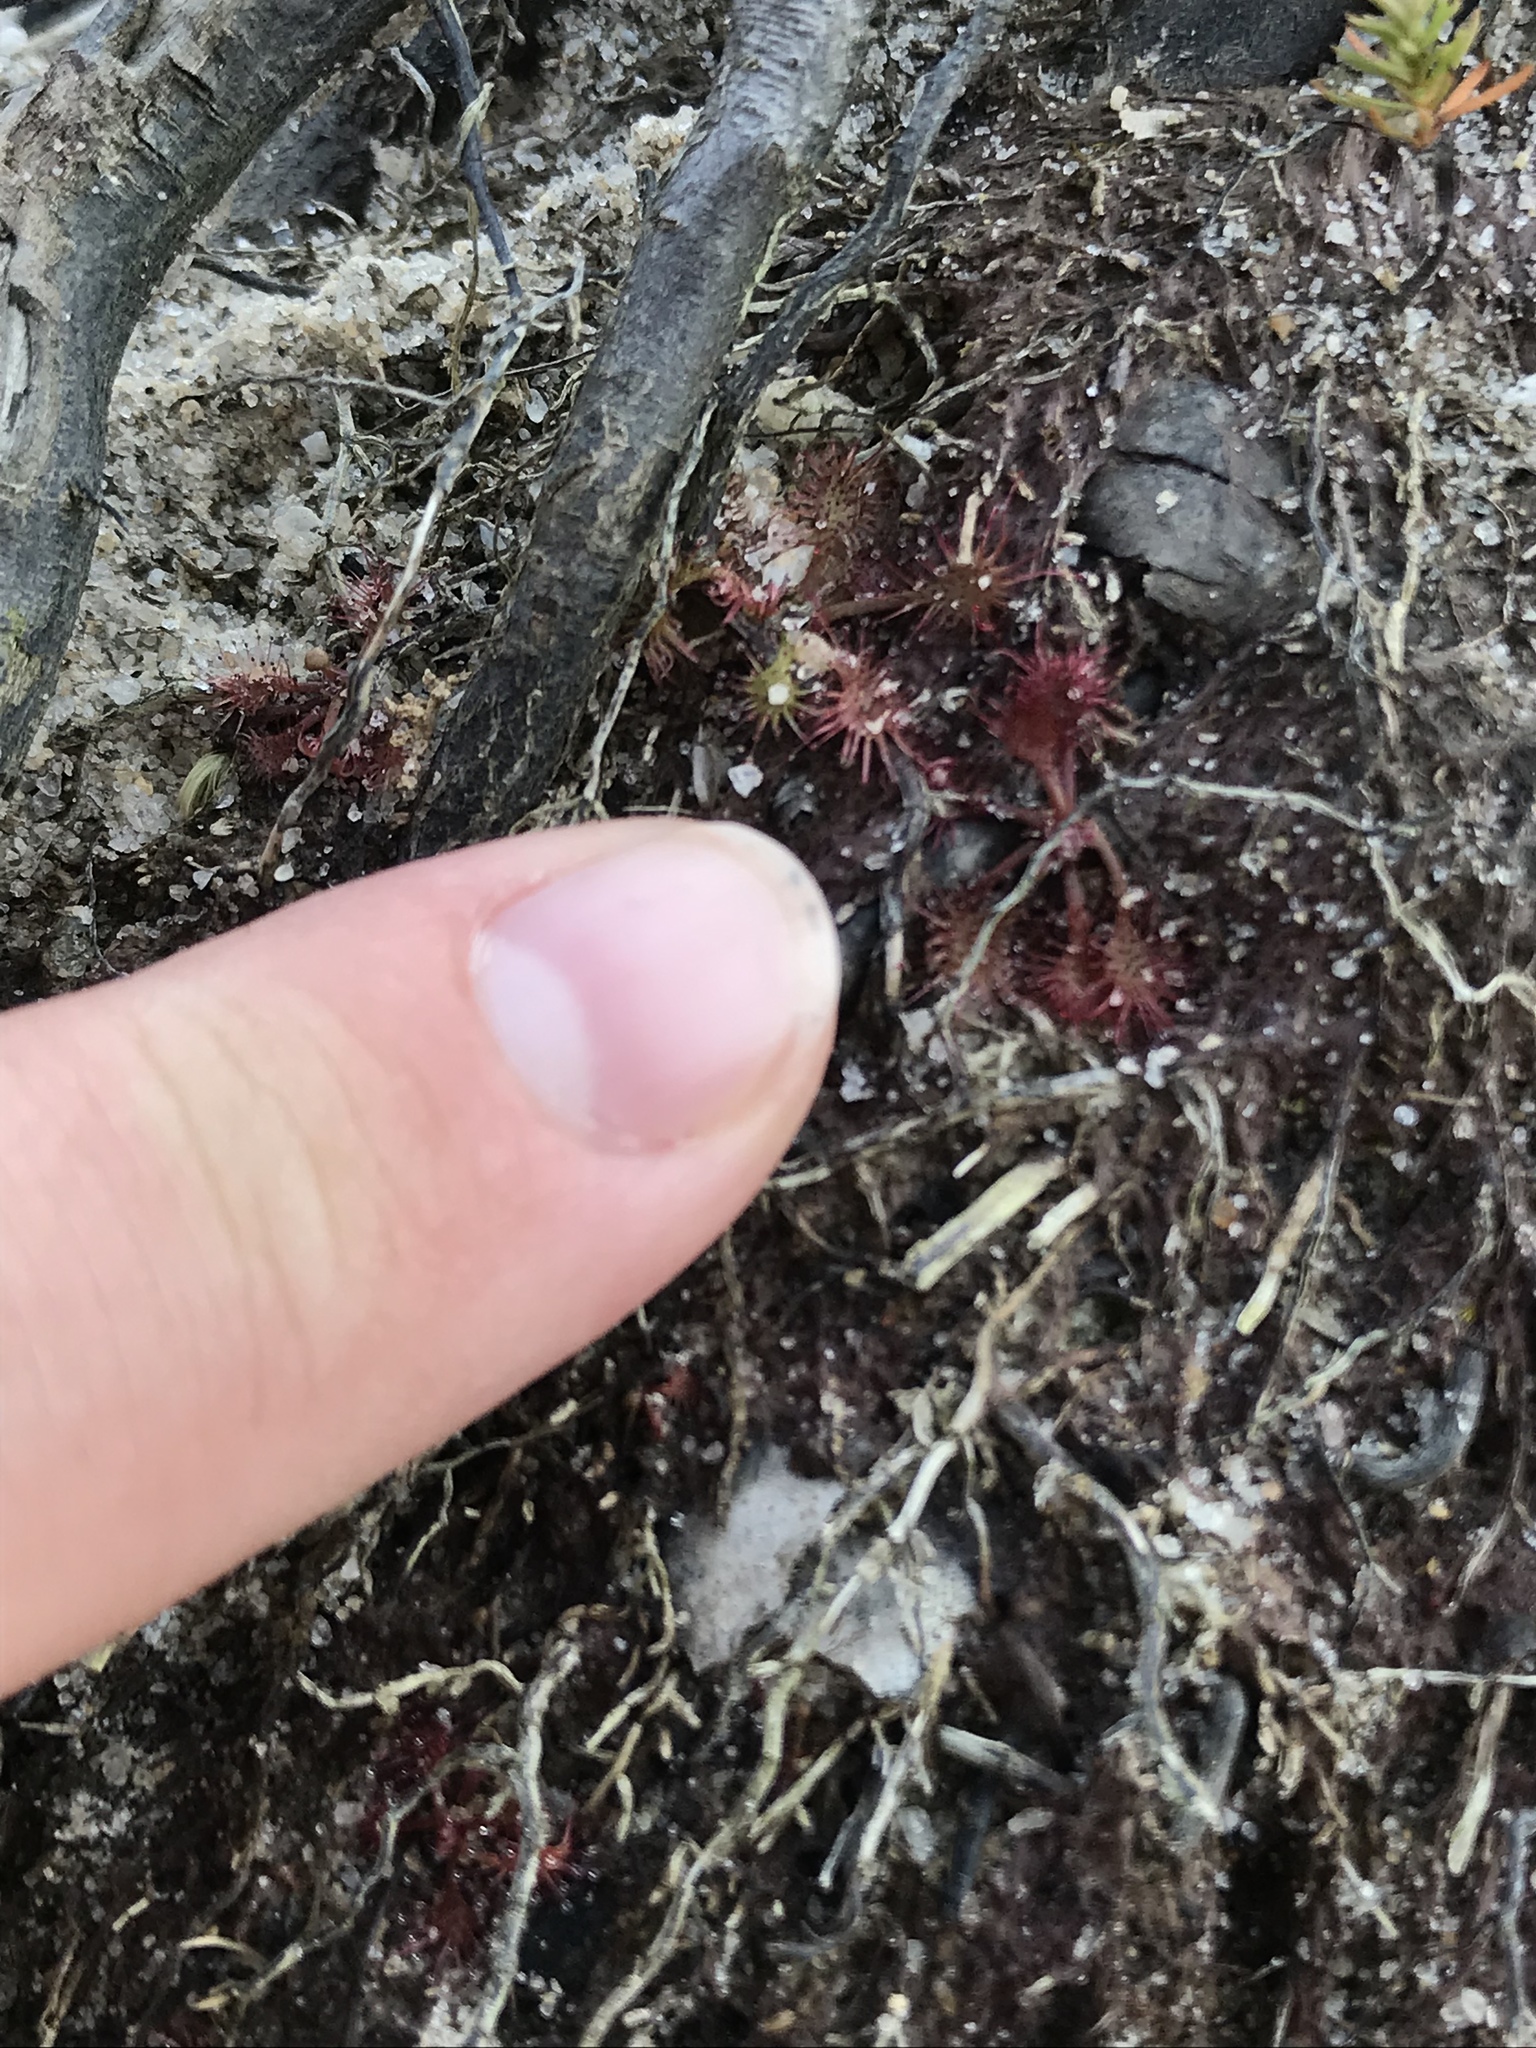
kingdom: Plantae
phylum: Tracheophyta
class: Magnoliopsida
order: Caryophyllales
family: Droseraceae
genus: Drosera
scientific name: Drosera rotundifolia
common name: Round-leaved sundew
